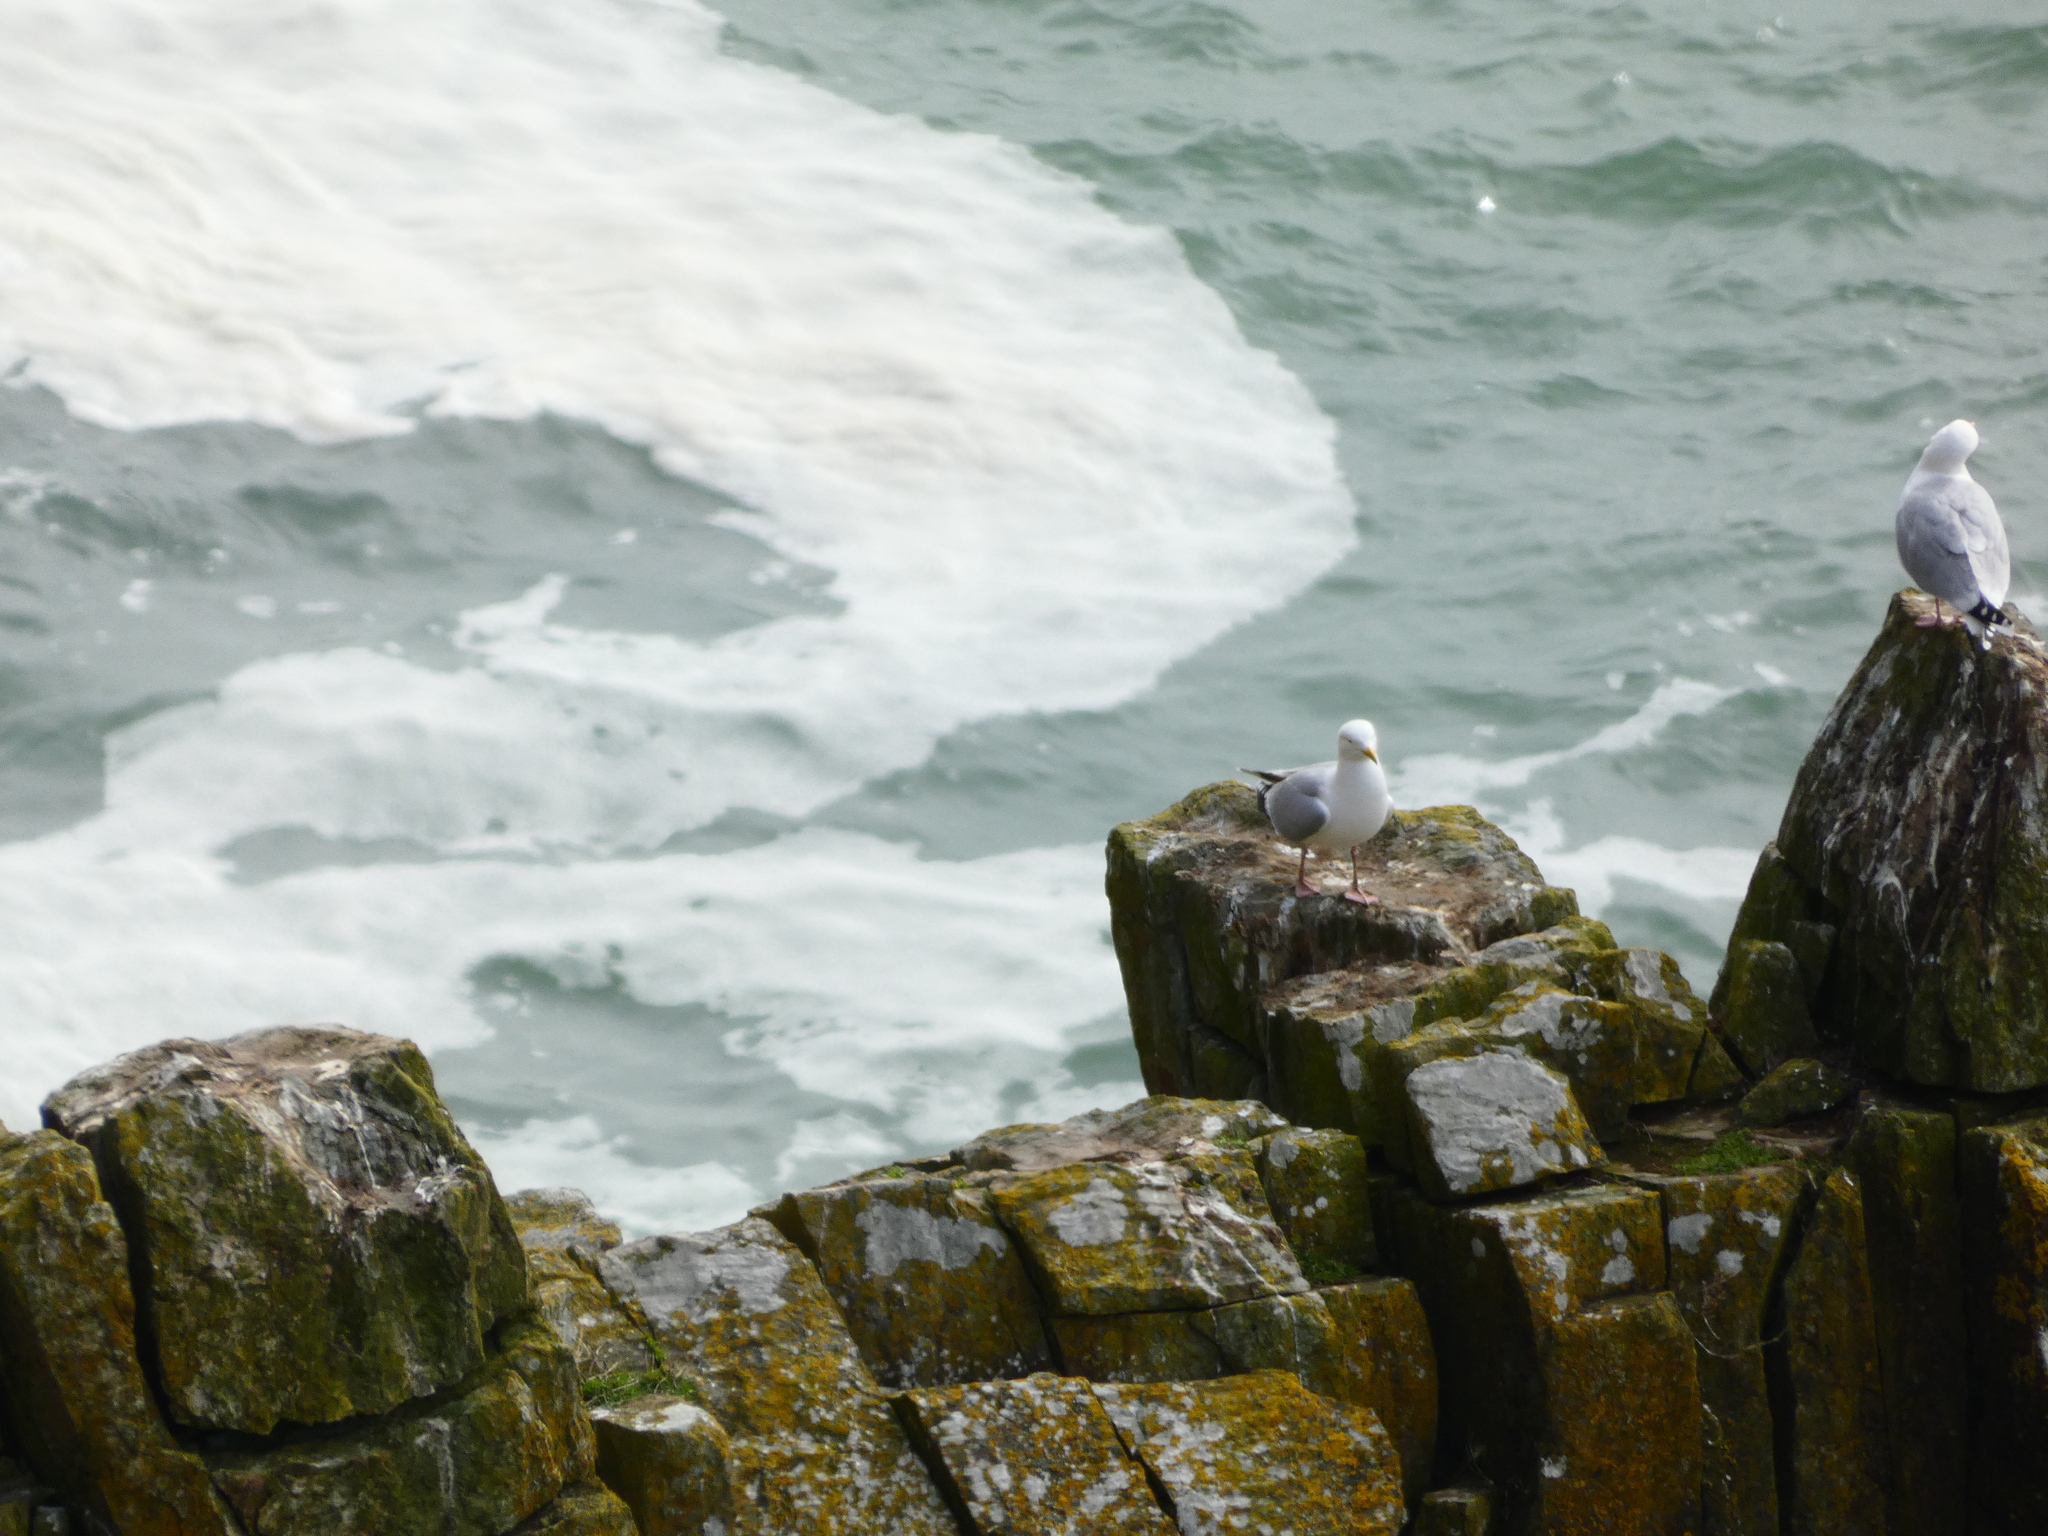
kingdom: Animalia
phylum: Chordata
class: Aves
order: Charadriiformes
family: Laridae
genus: Larus
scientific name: Larus argentatus
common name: Herring gull
